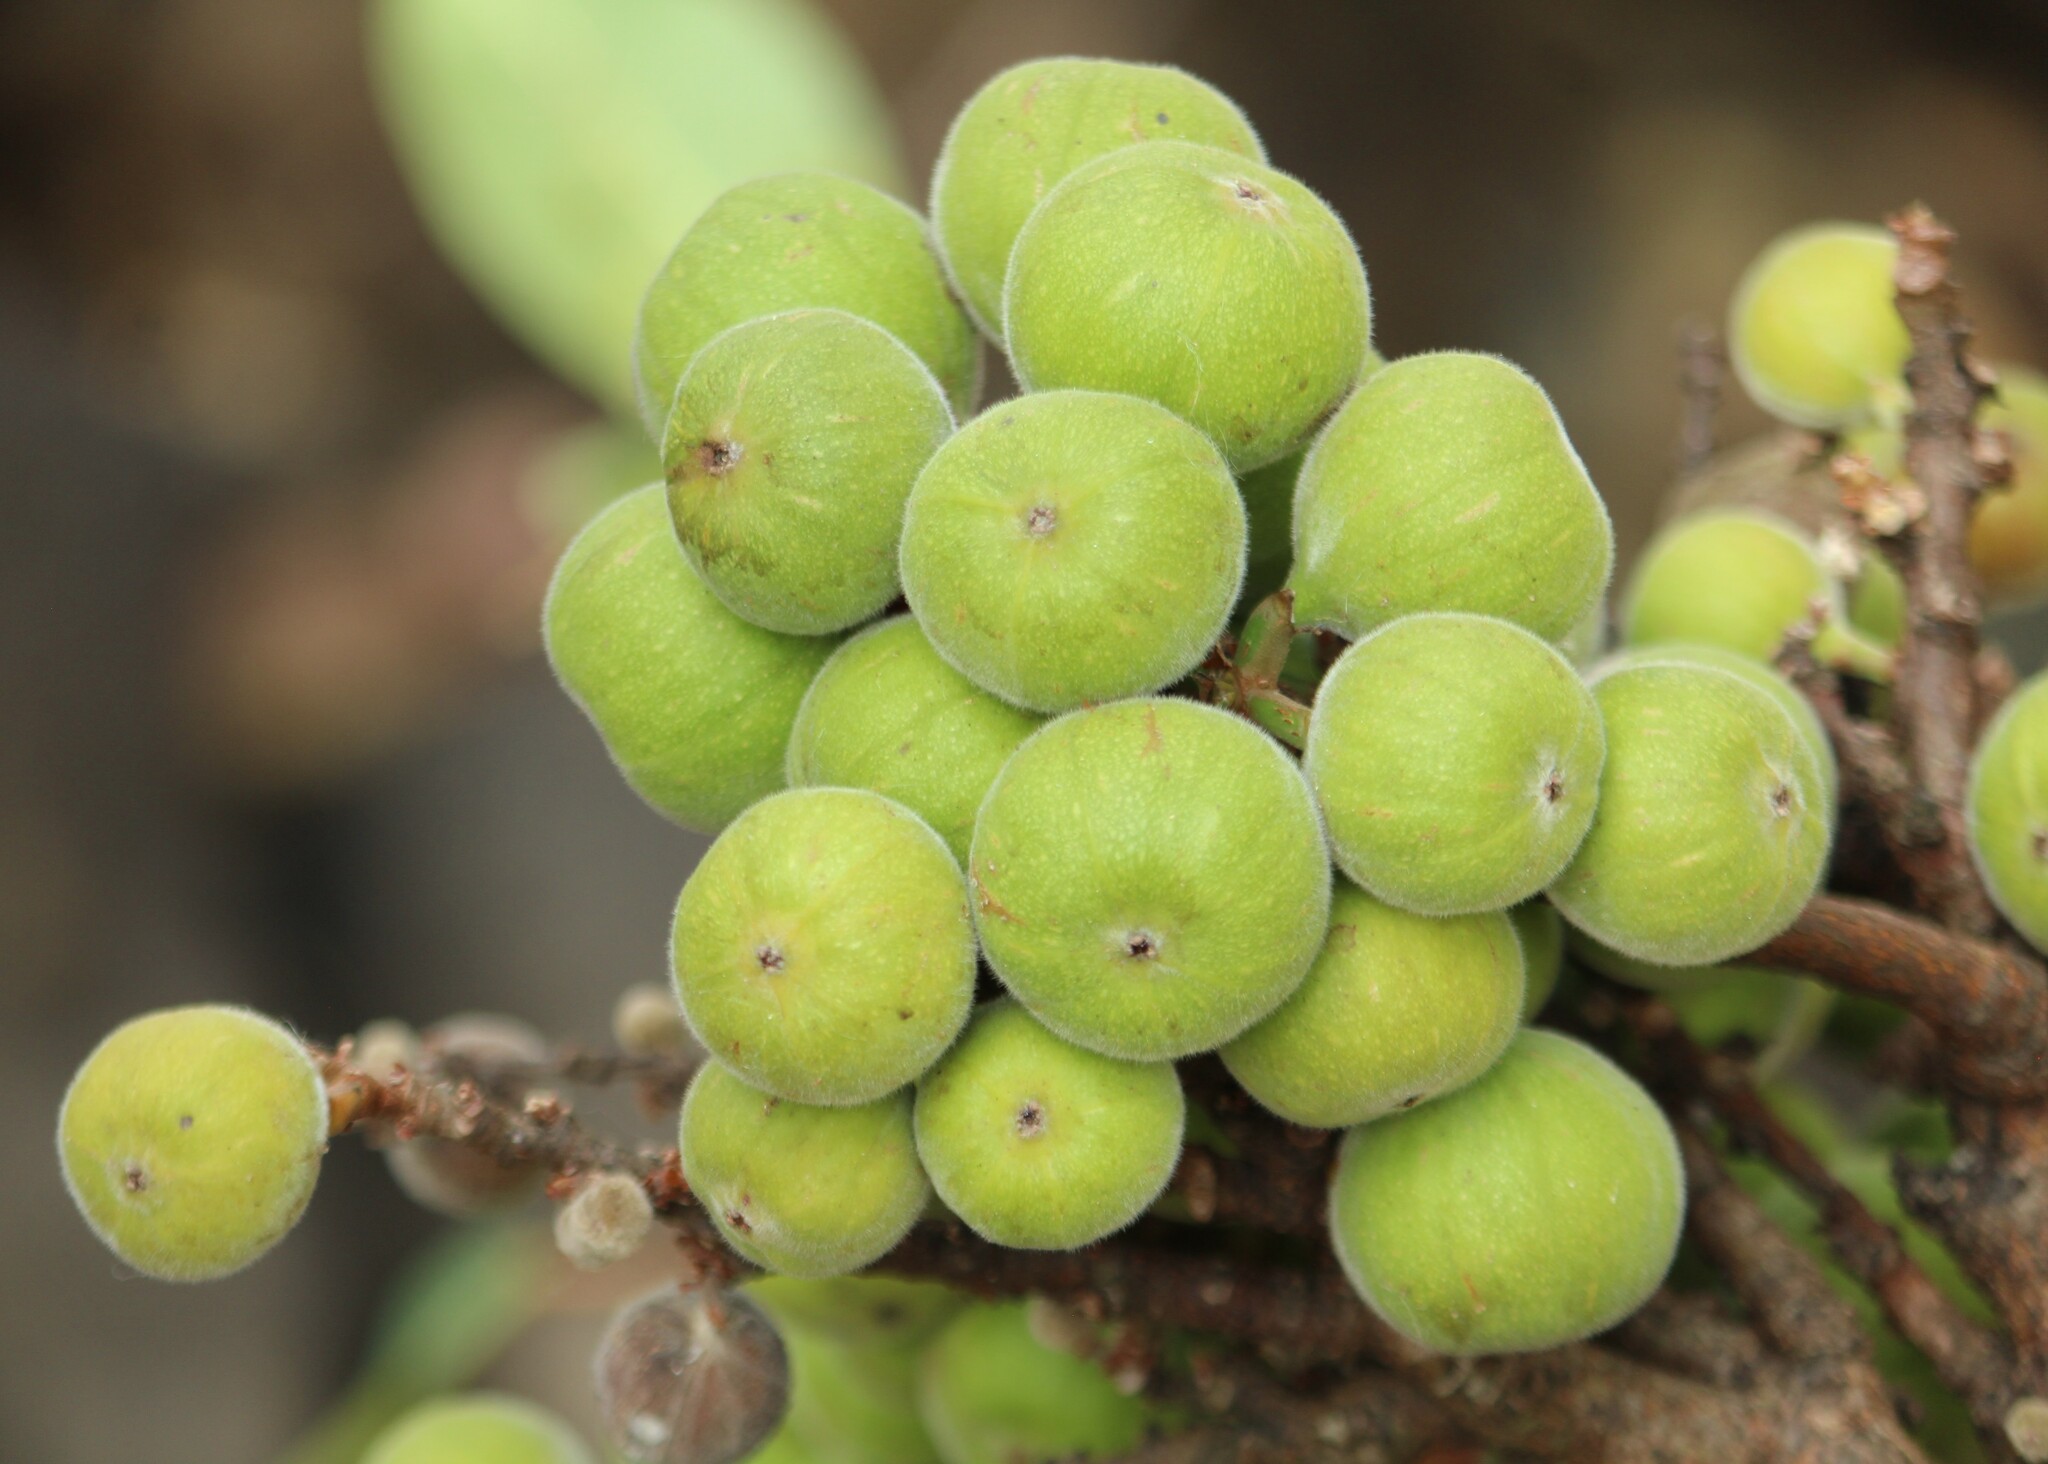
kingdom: Plantae
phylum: Tracheophyta
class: Magnoliopsida
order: Rosales
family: Moraceae
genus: Ficus
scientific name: Ficus racemosa
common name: Cluster fig
